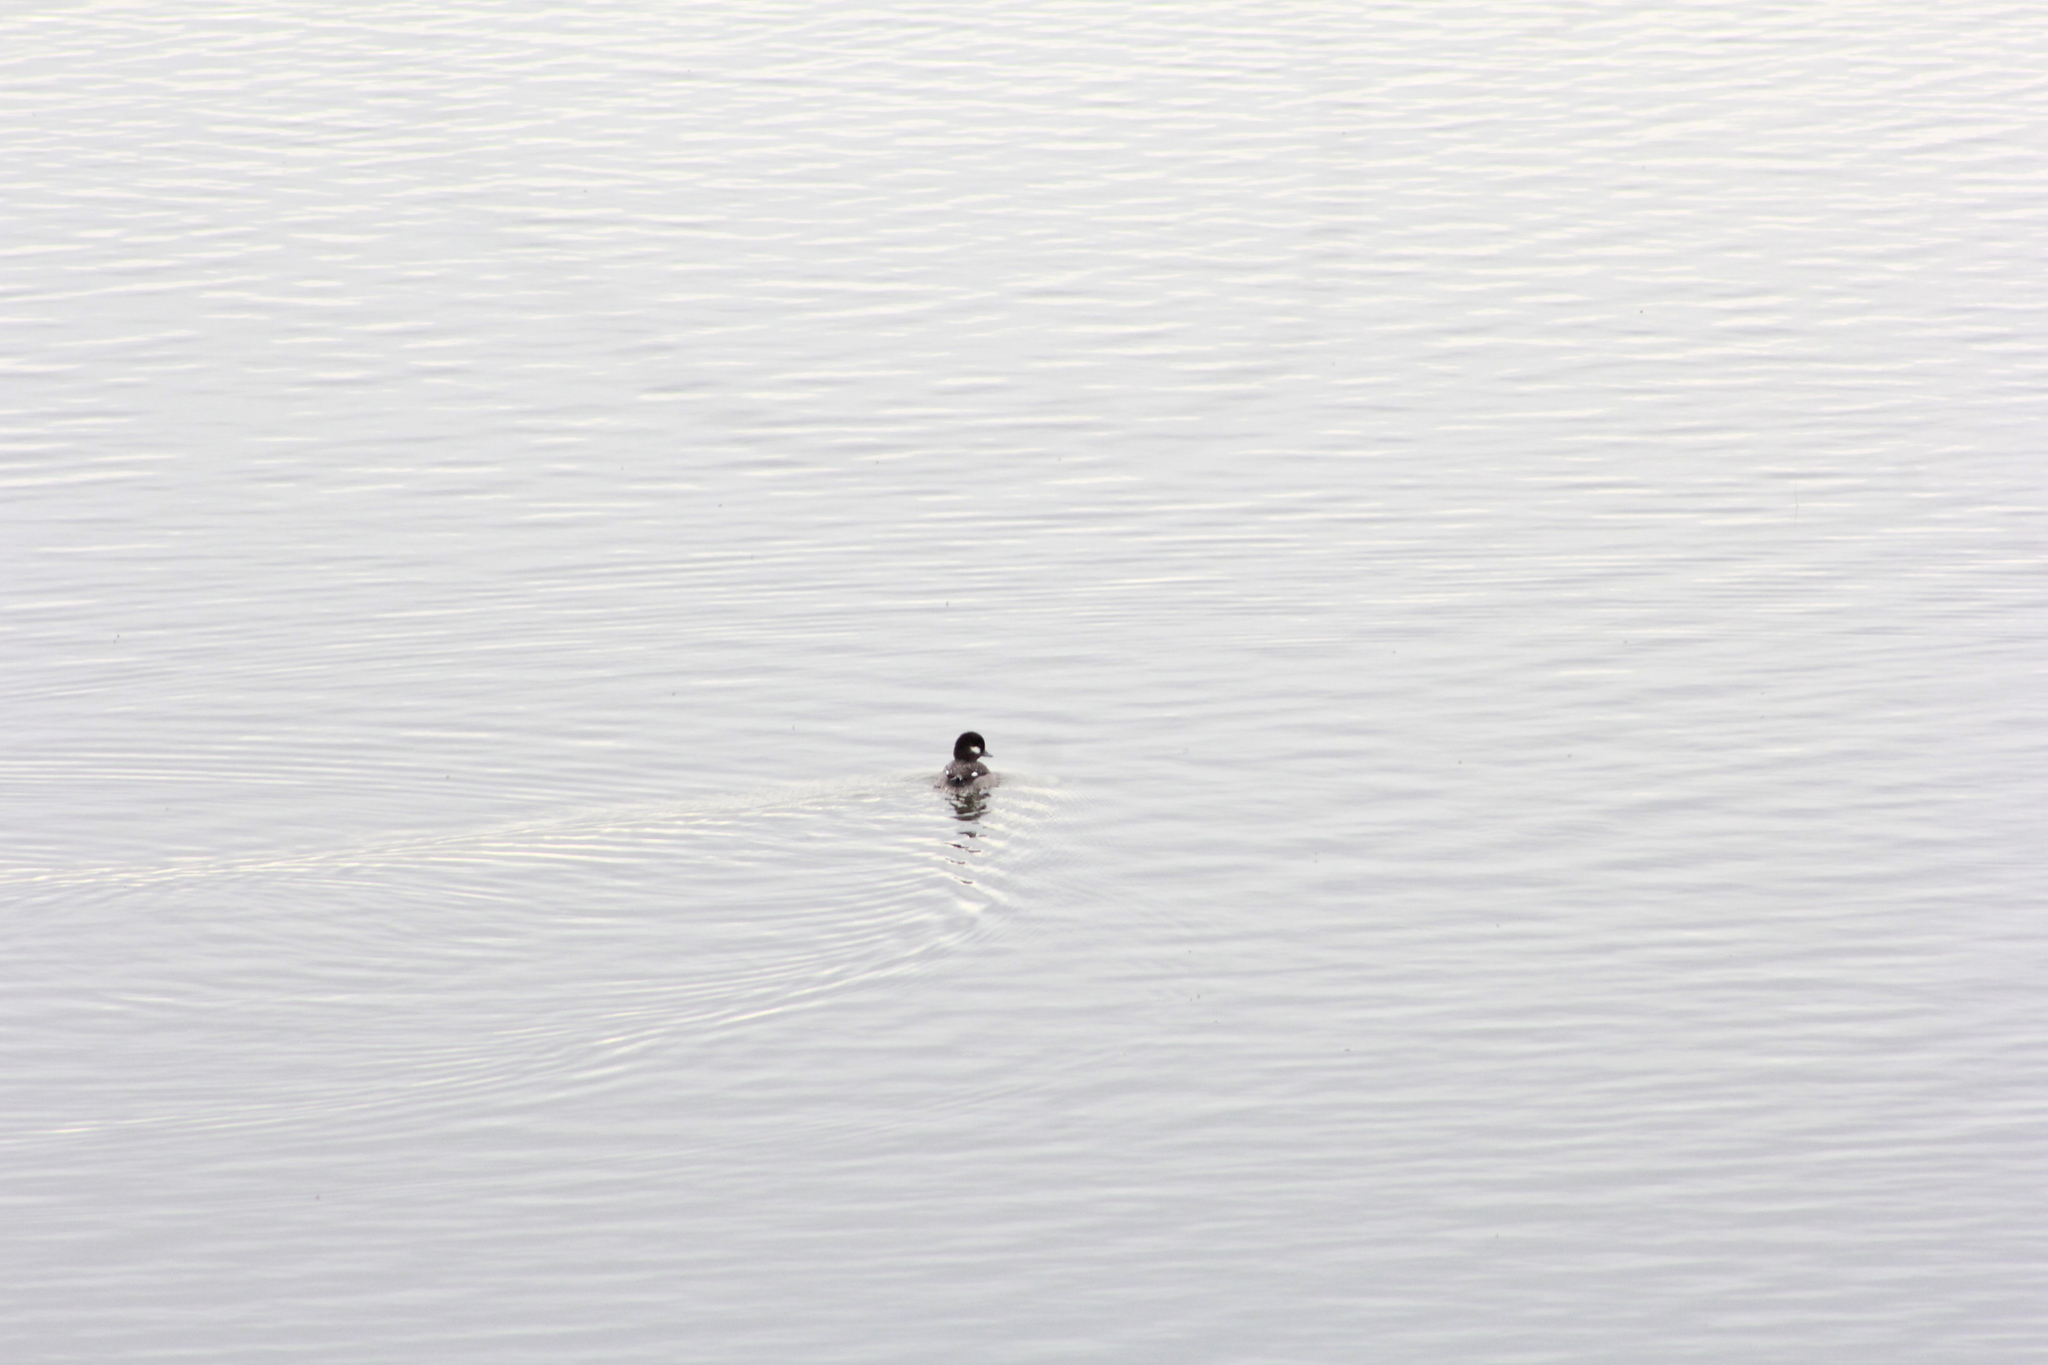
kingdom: Animalia
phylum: Chordata
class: Aves
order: Anseriformes
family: Anatidae
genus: Bucephala
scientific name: Bucephala albeola
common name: Bufflehead
